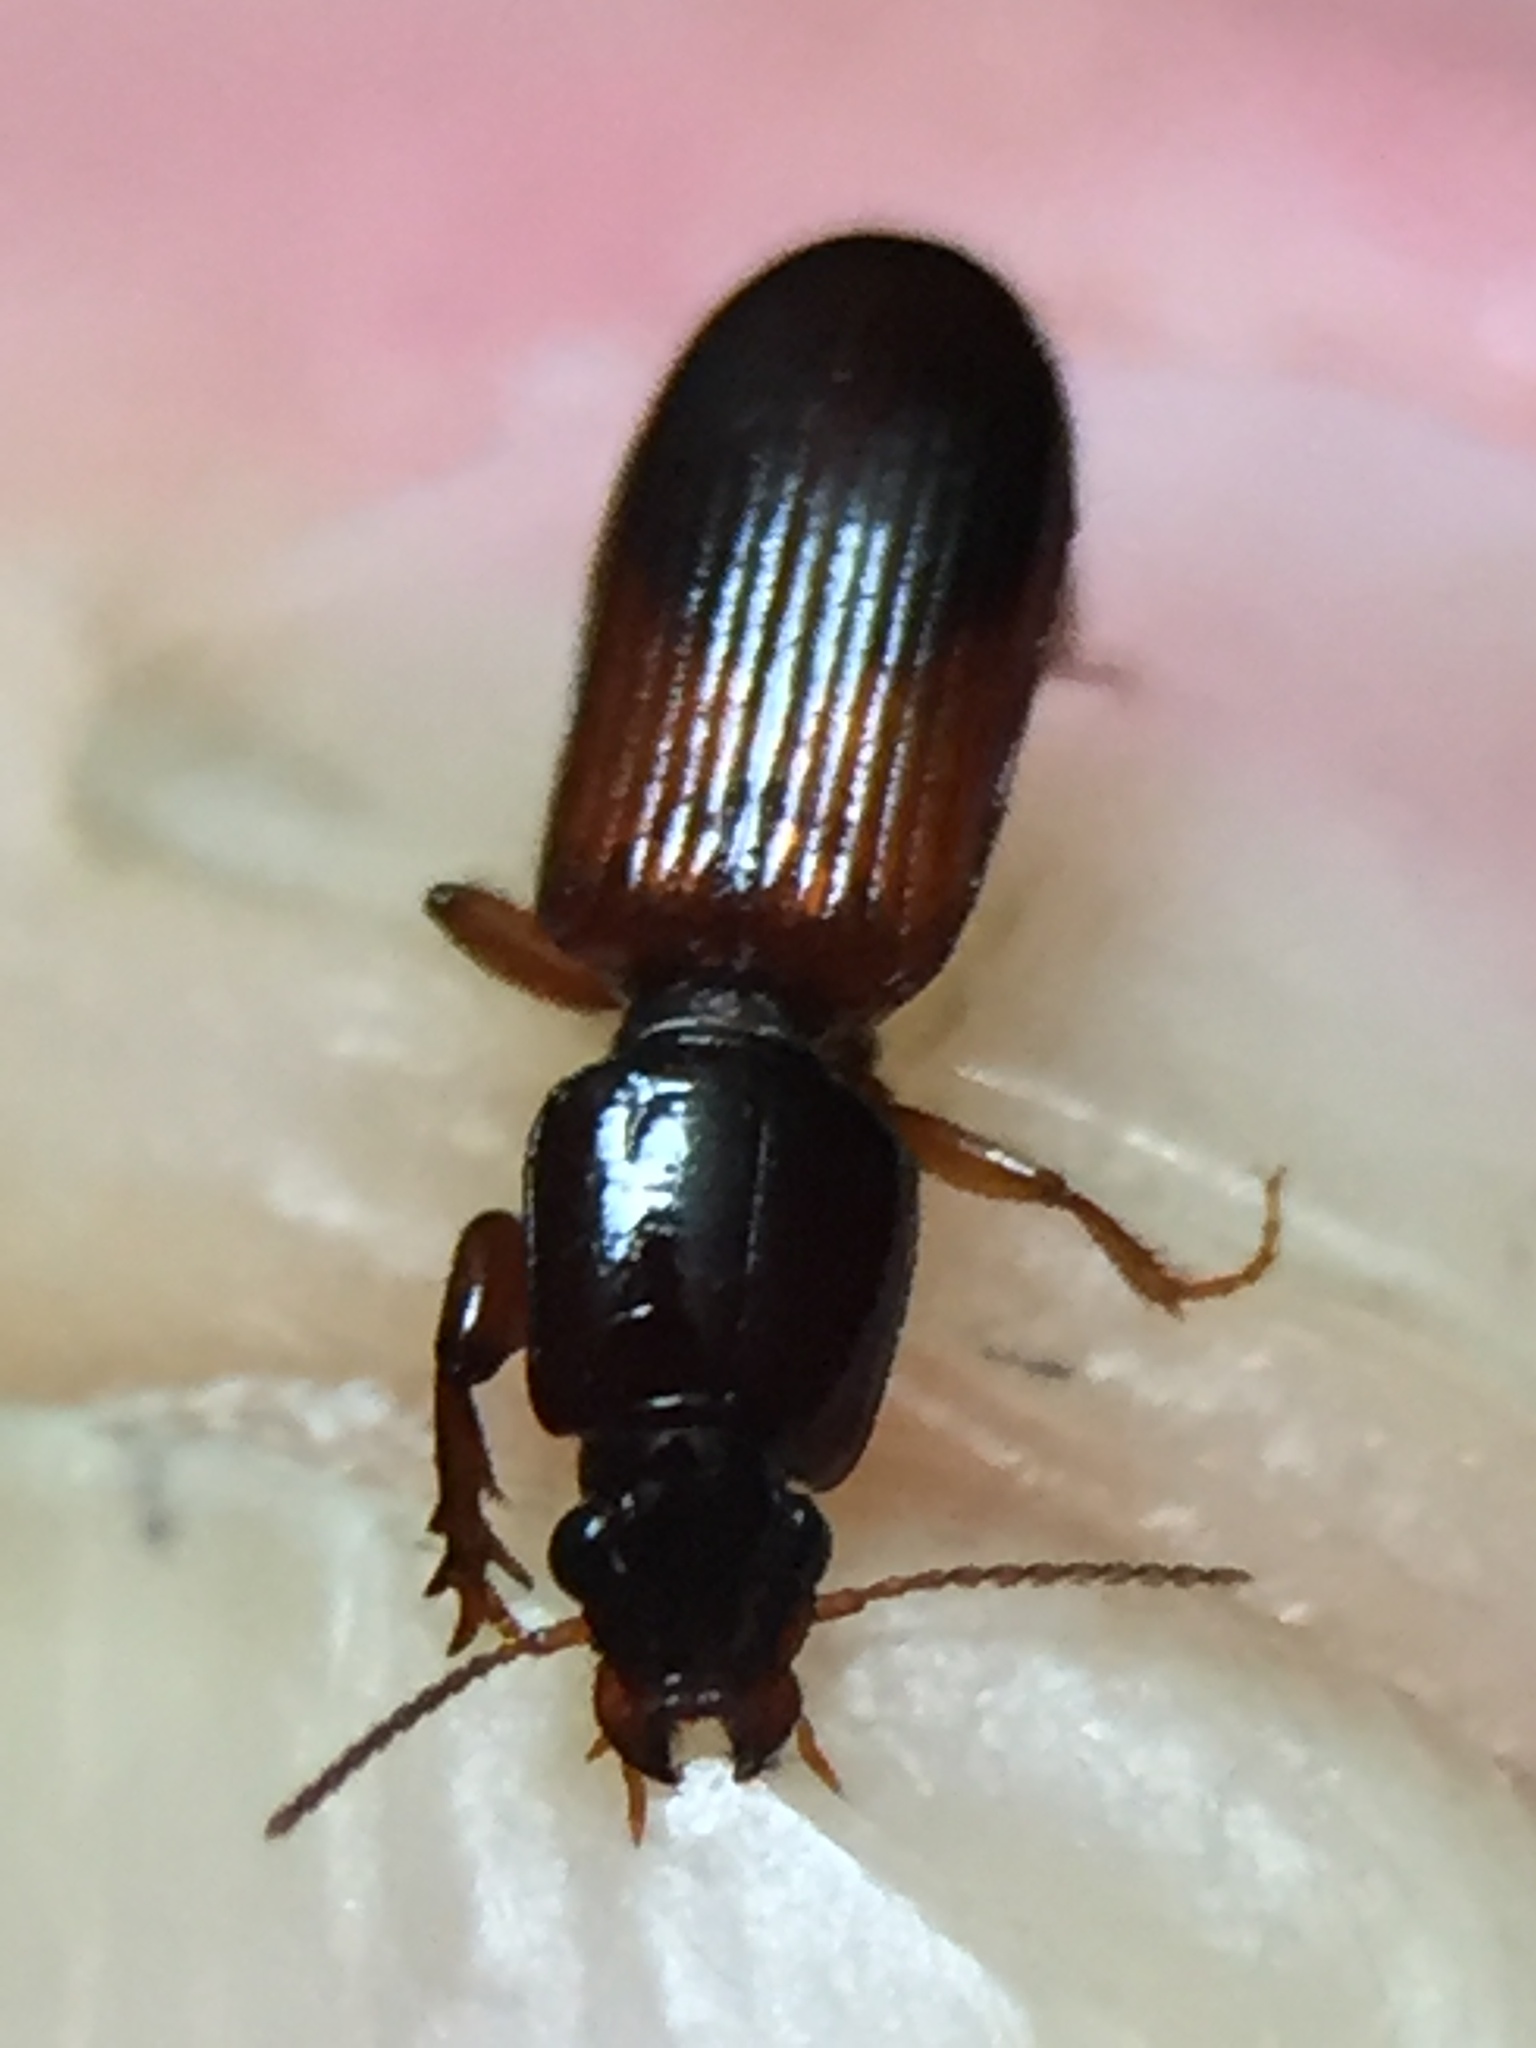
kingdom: Animalia
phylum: Arthropoda
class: Insecta
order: Coleoptera
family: Carabidae
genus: Clivina
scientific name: Clivina basalis
